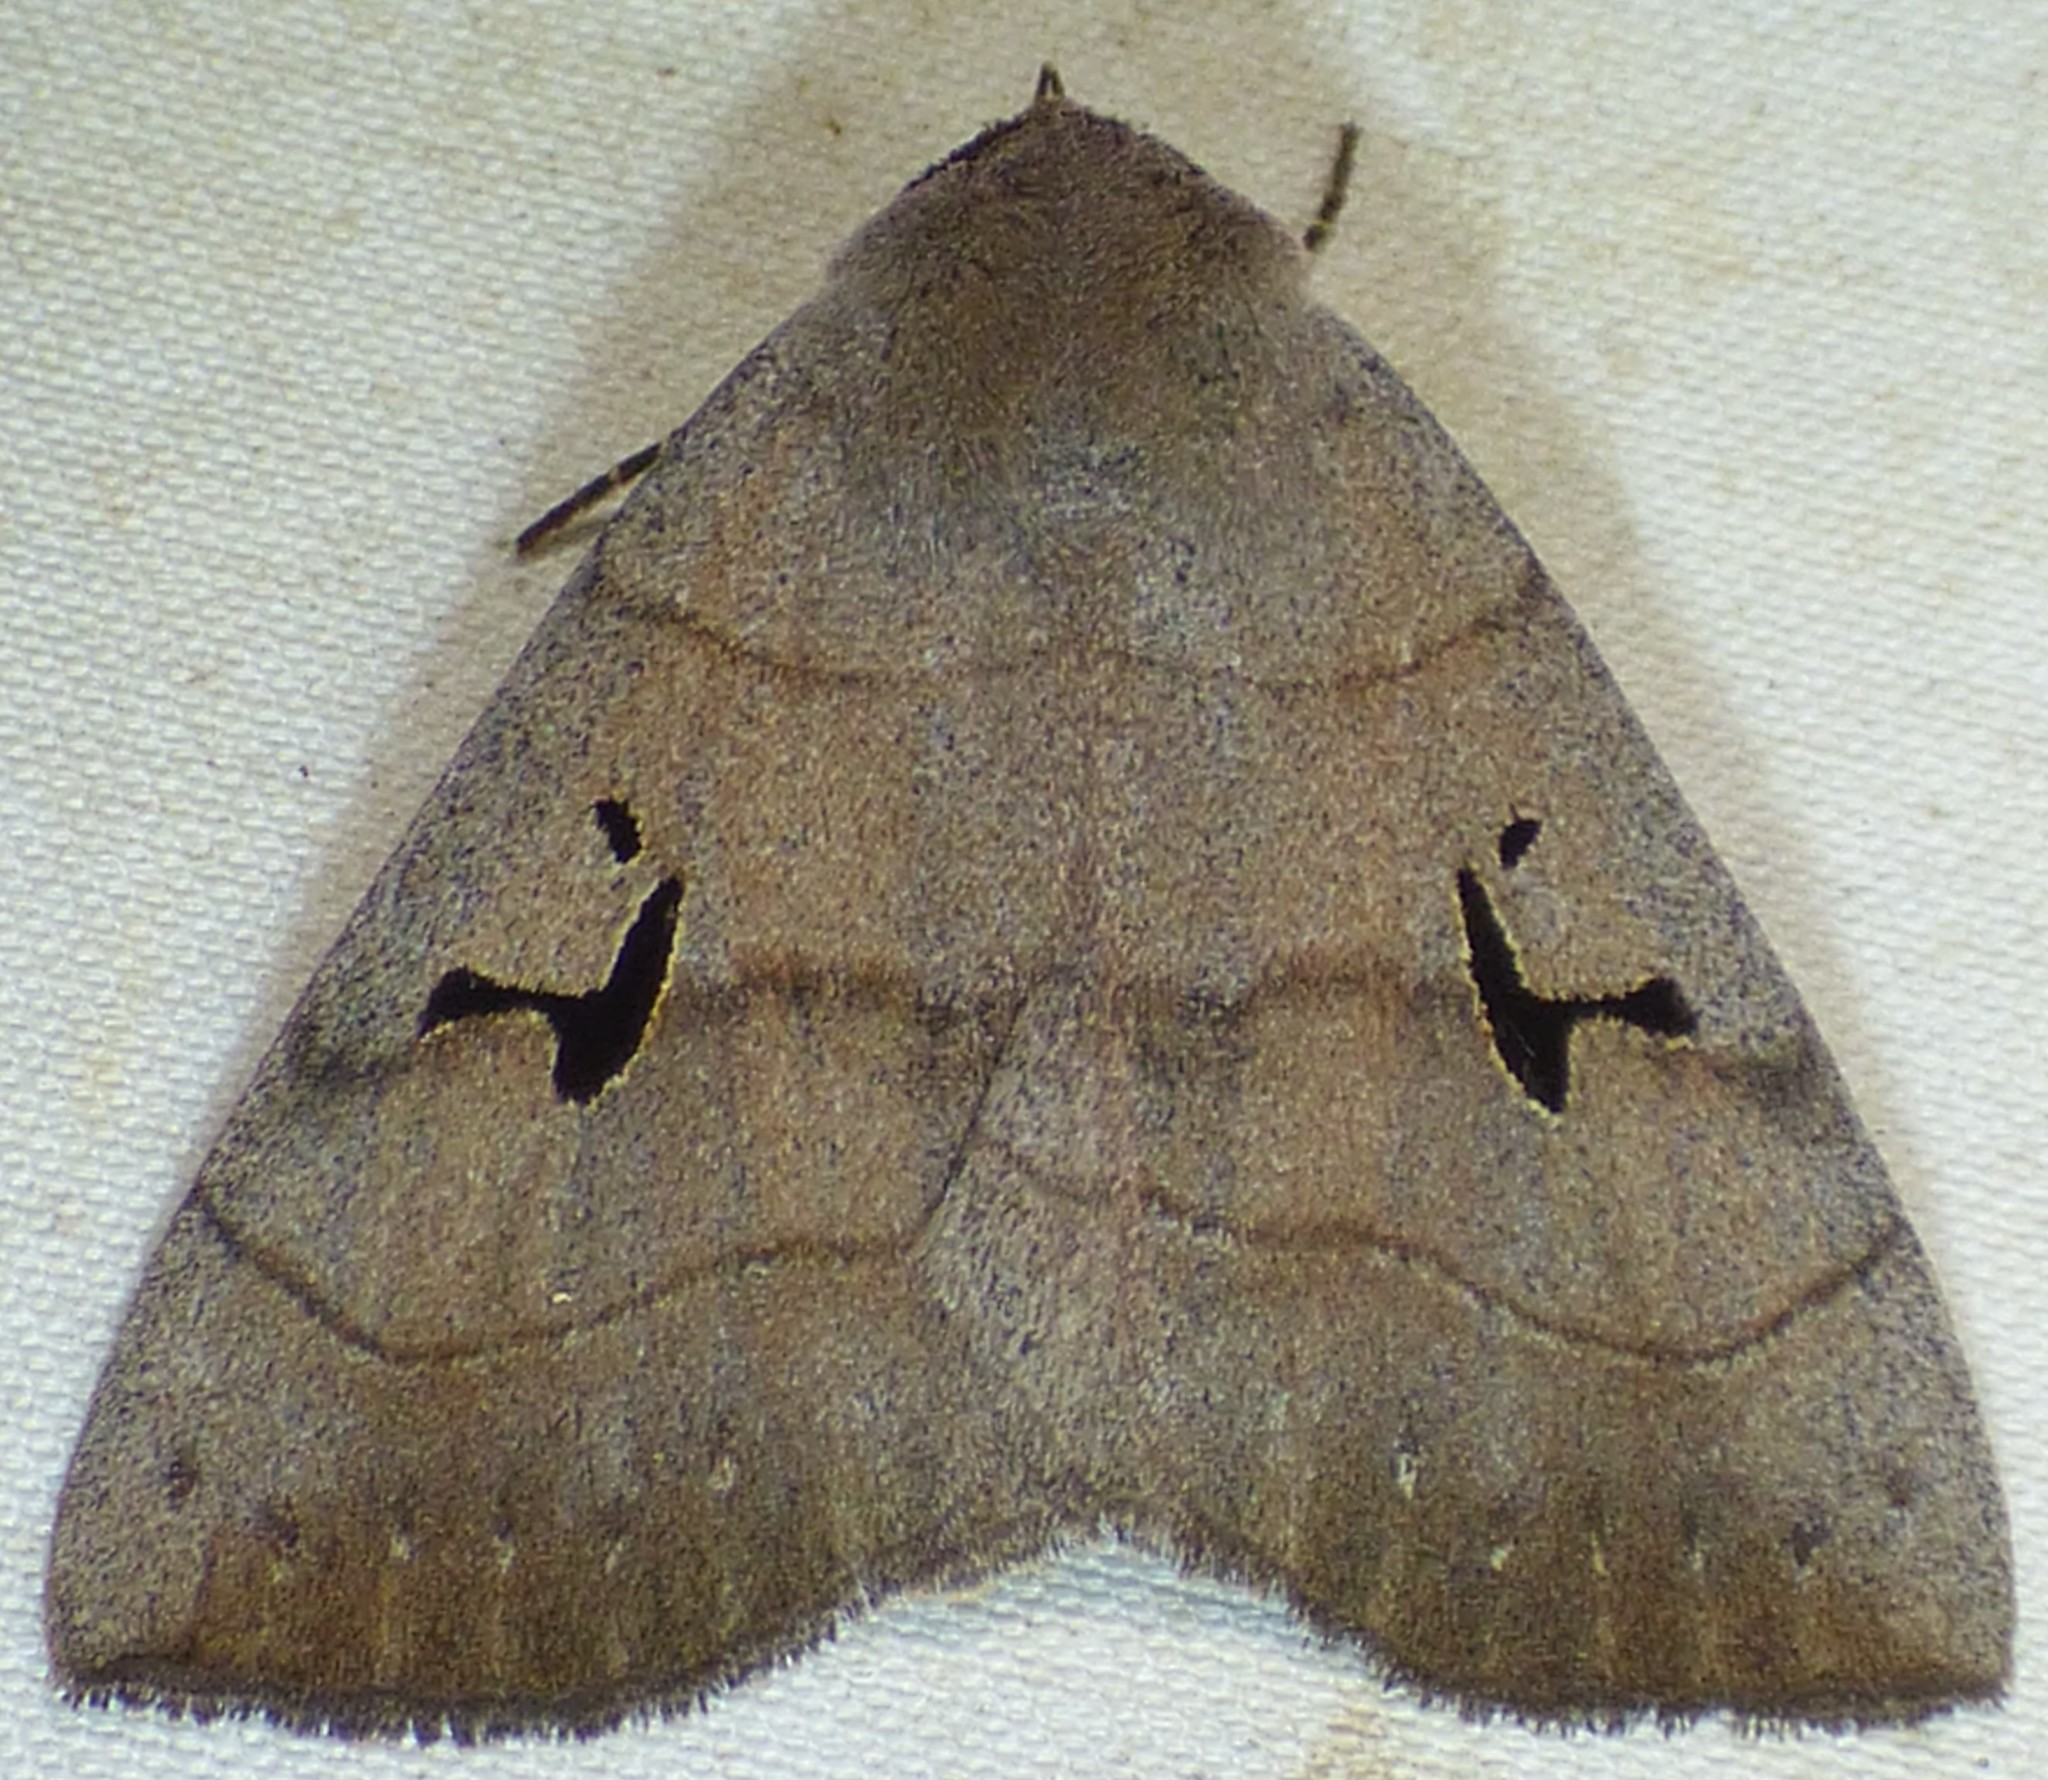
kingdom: Animalia
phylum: Arthropoda
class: Insecta
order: Lepidoptera
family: Erebidae
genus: Panopoda
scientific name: Panopoda carneicosta
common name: Brown panopoda moth
